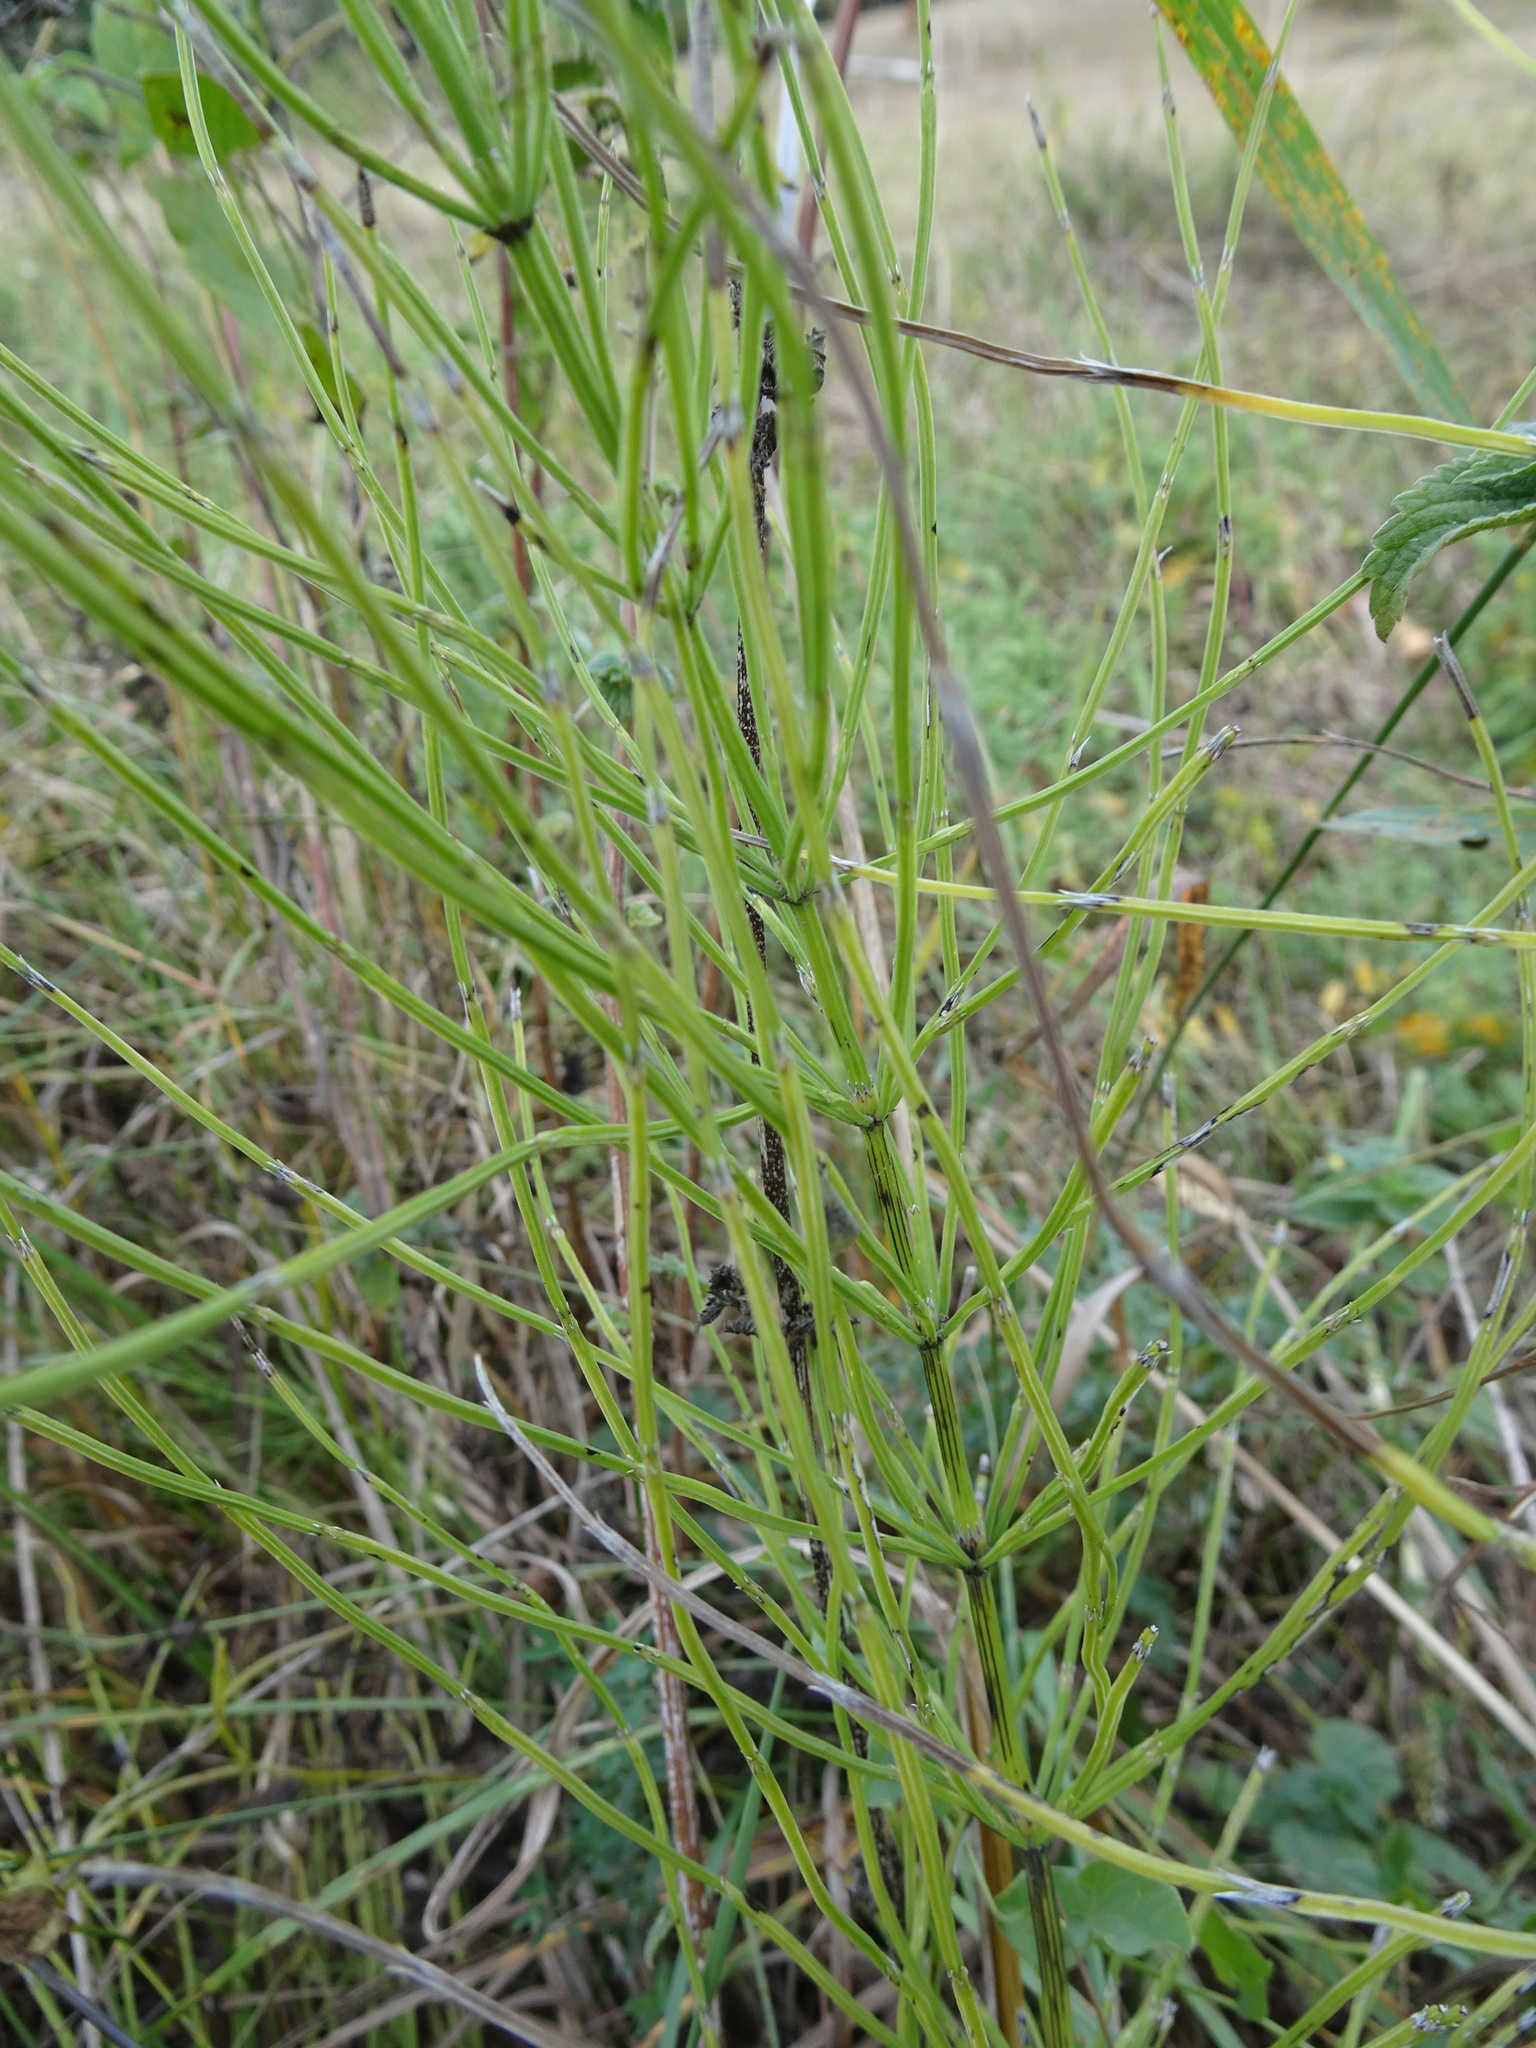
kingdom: Plantae
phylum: Tracheophyta
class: Polypodiopsida
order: Equisetales
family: Equisetaceae
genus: Equisetum
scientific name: Equisetum arvense
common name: Field horsetail
